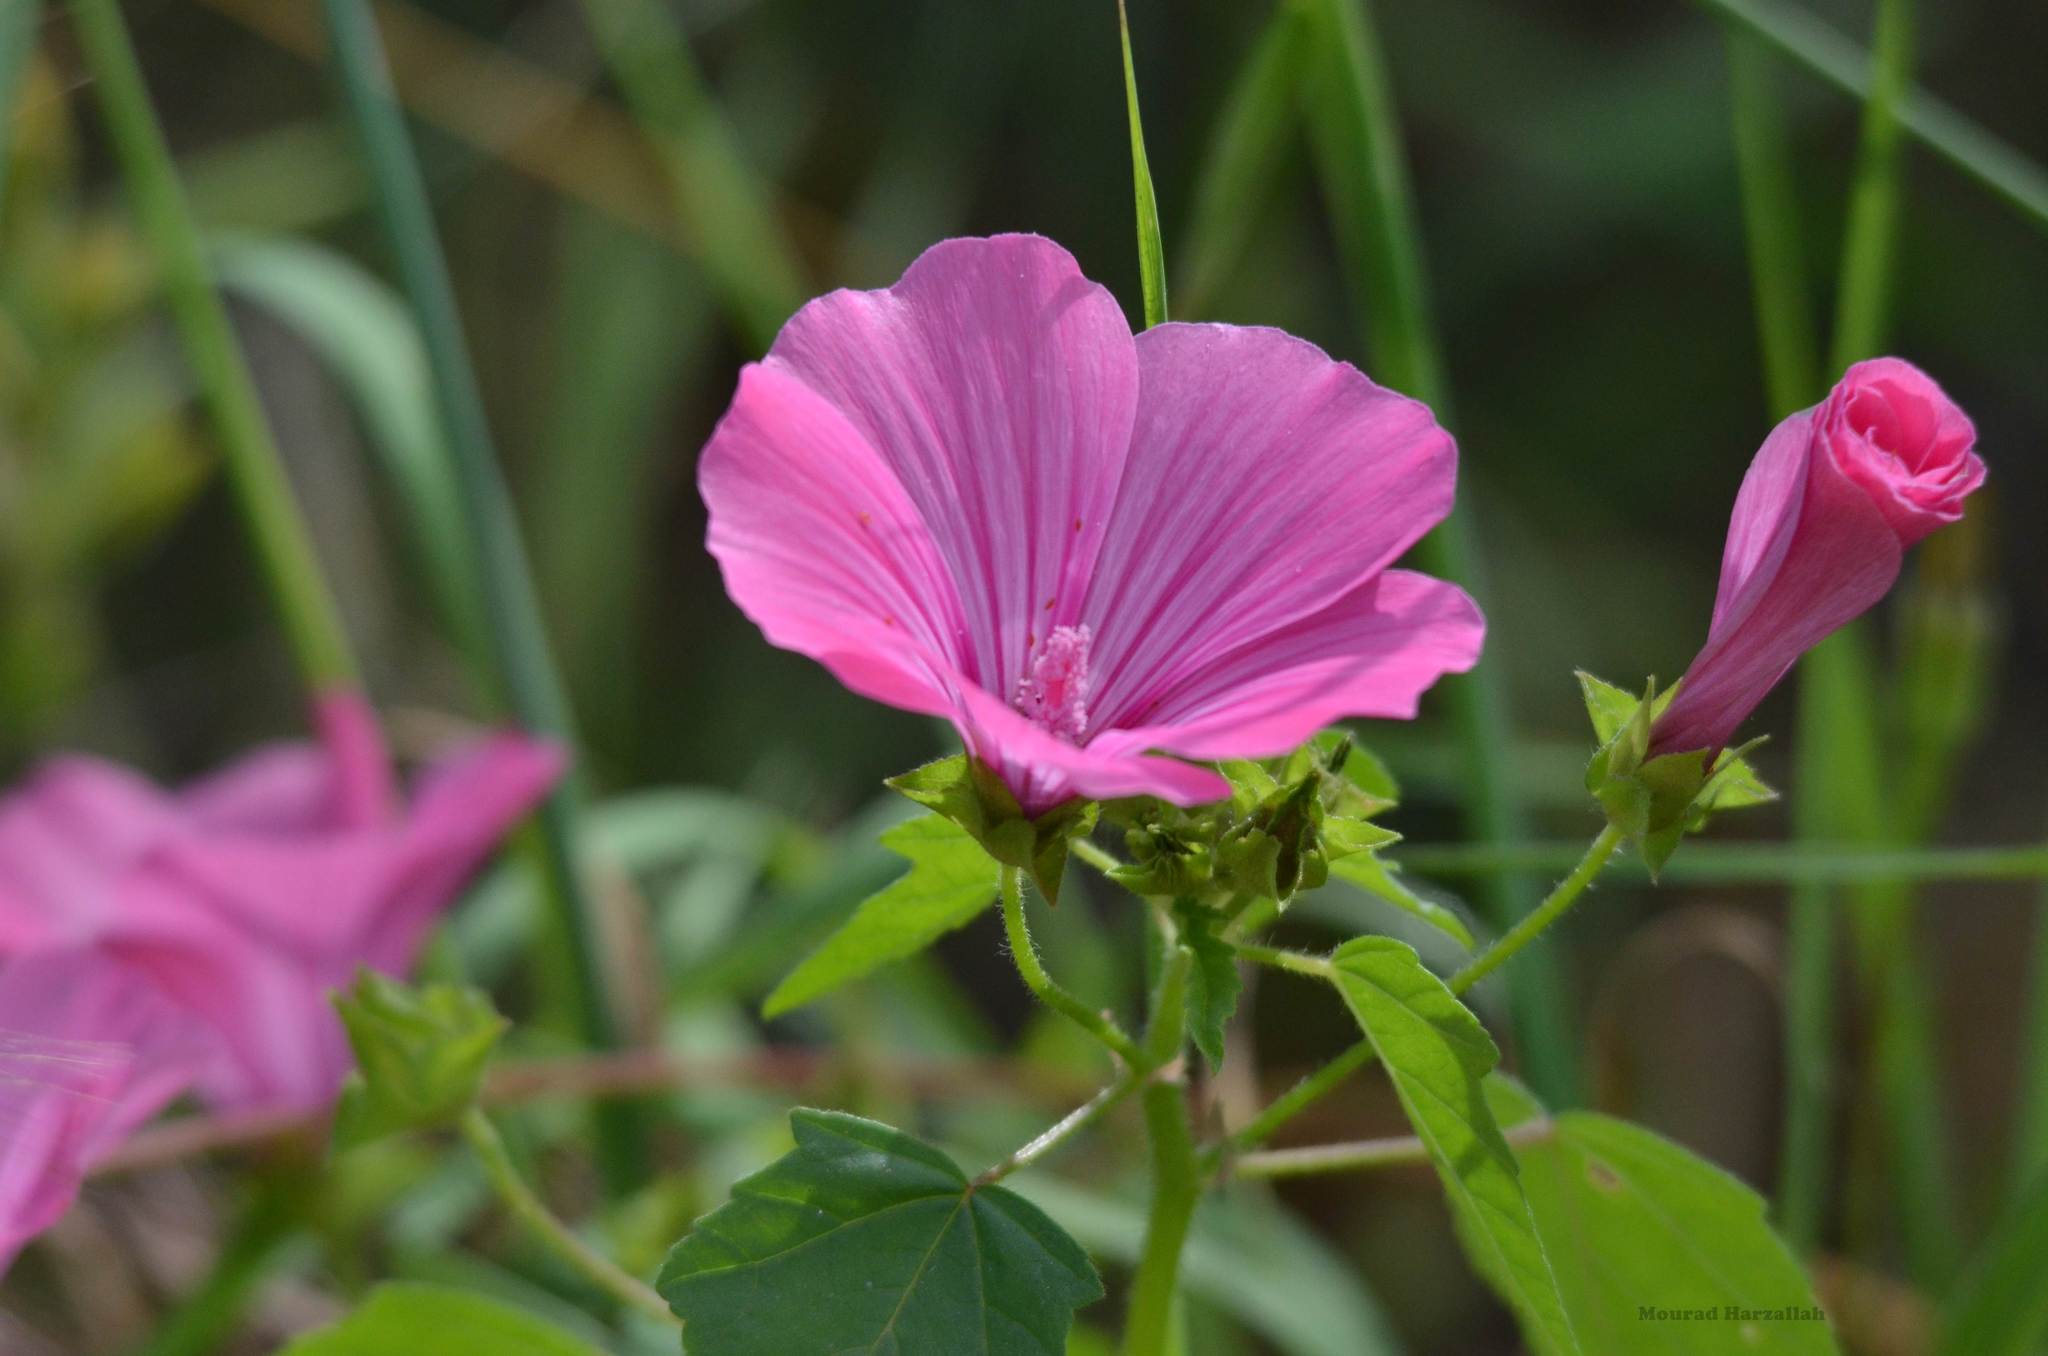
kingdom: Plantae
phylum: Tracheophyta
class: Magnoliopsida
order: Malvales
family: Malvaceae
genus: Malva
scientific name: Malva trimestris
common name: Royal mallow
